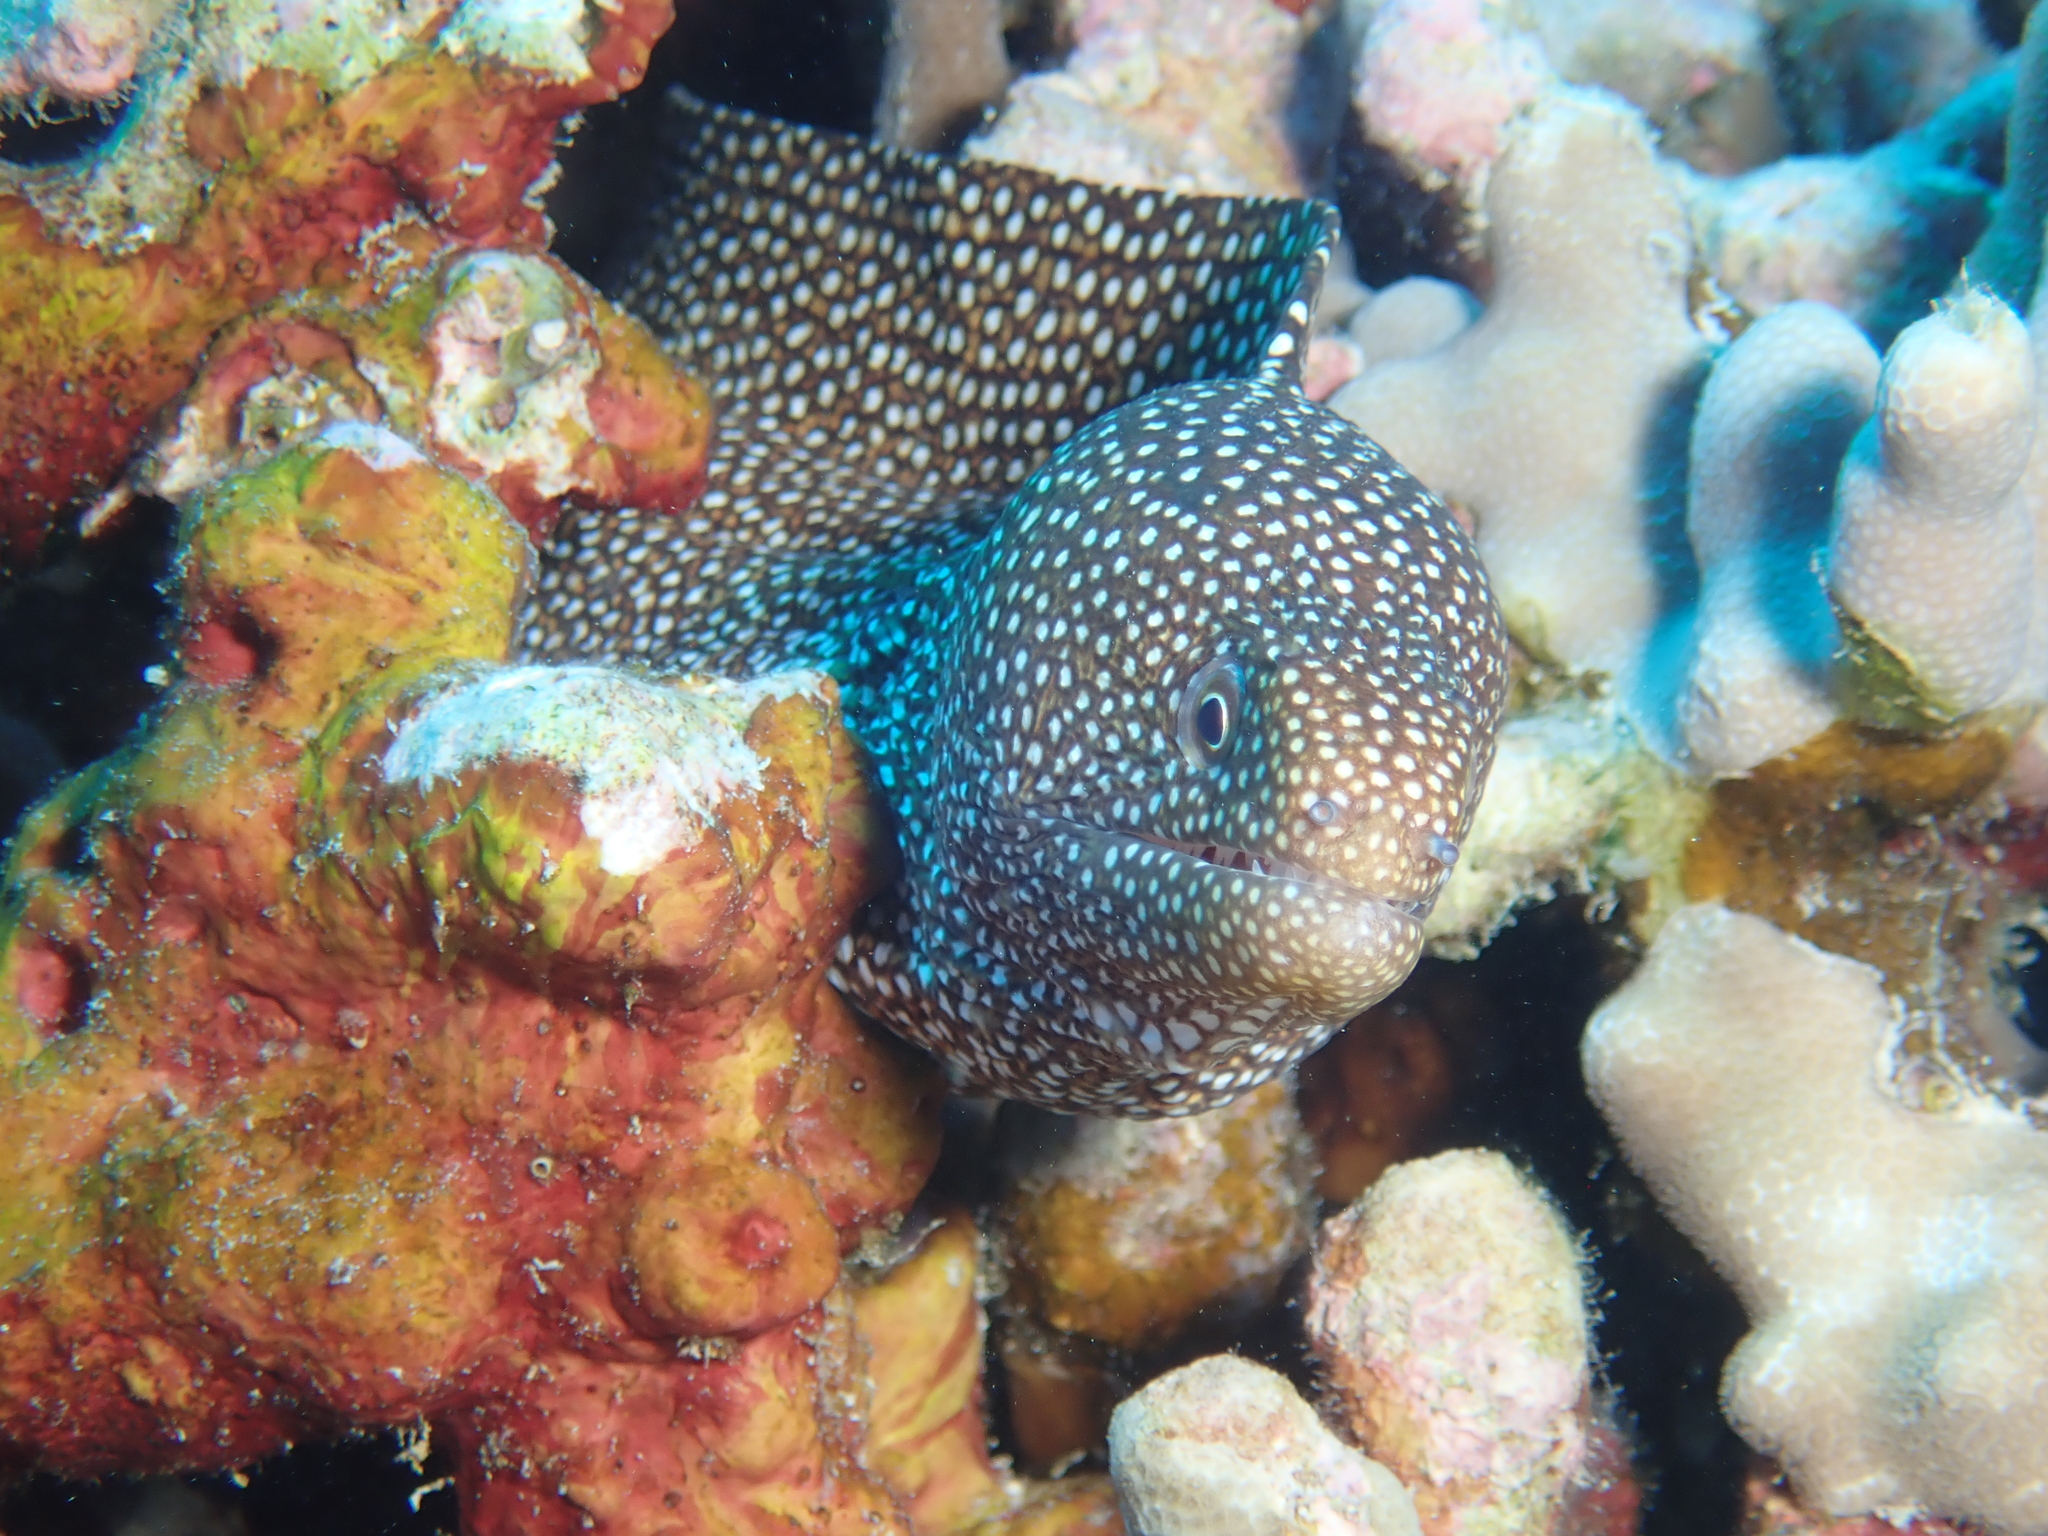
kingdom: Animalia
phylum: Chordata
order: Anguilliformes
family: Muraenidae
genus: Gymnothorax
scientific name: Gymnothorax meleagris
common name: Guineafowl moray
